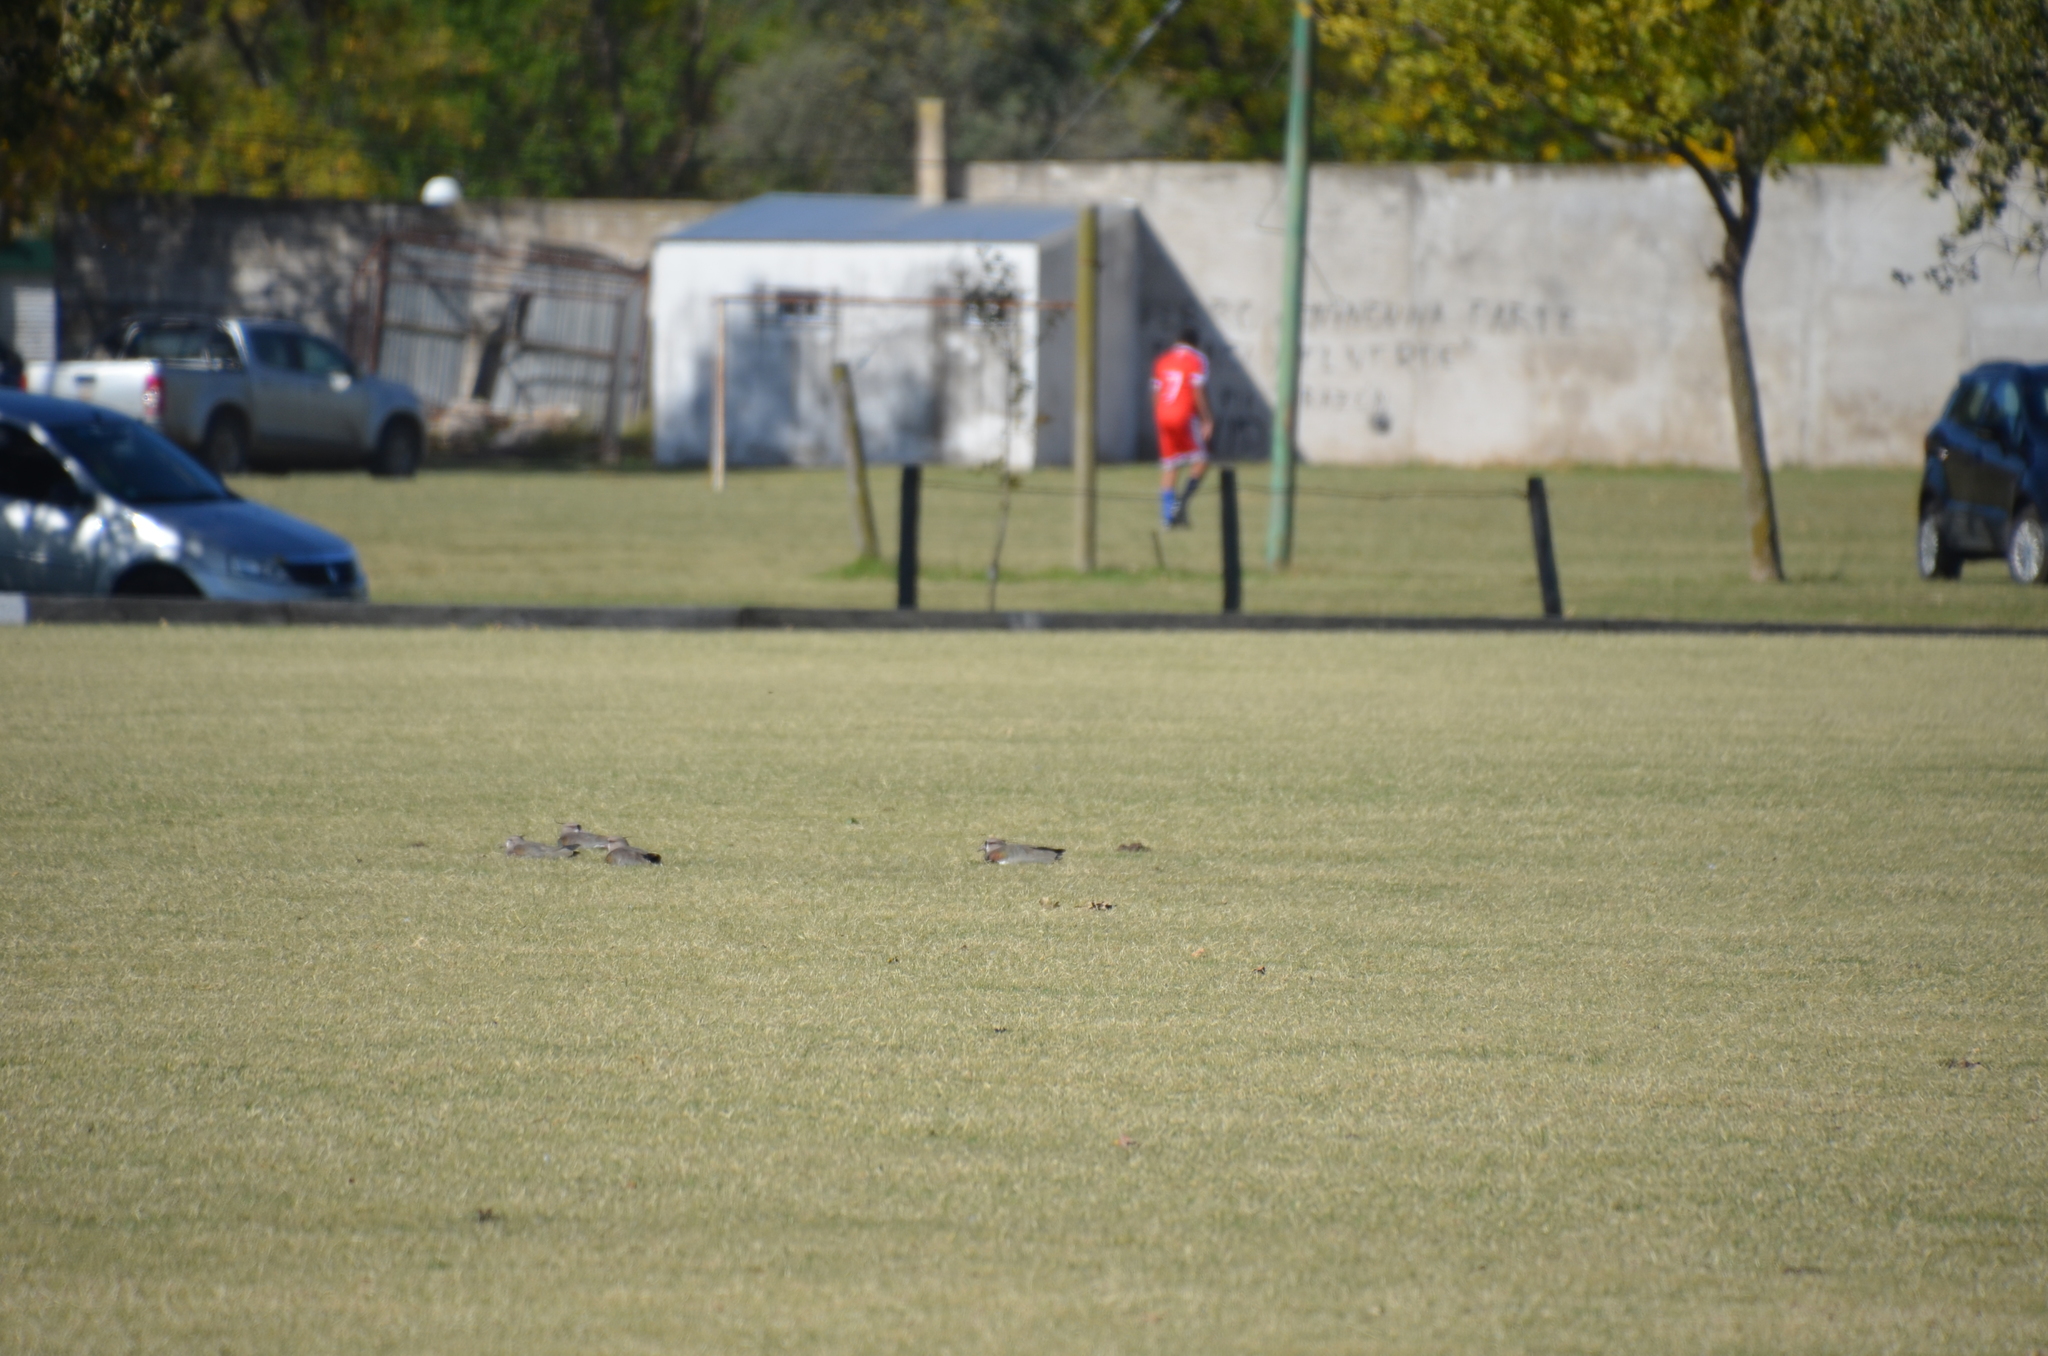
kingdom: Animalia
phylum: Chordata
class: Aves
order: Charadriiformes
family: Charadriidae
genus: Vanellus
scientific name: Vanellus chilensis
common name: Southern lapwing
